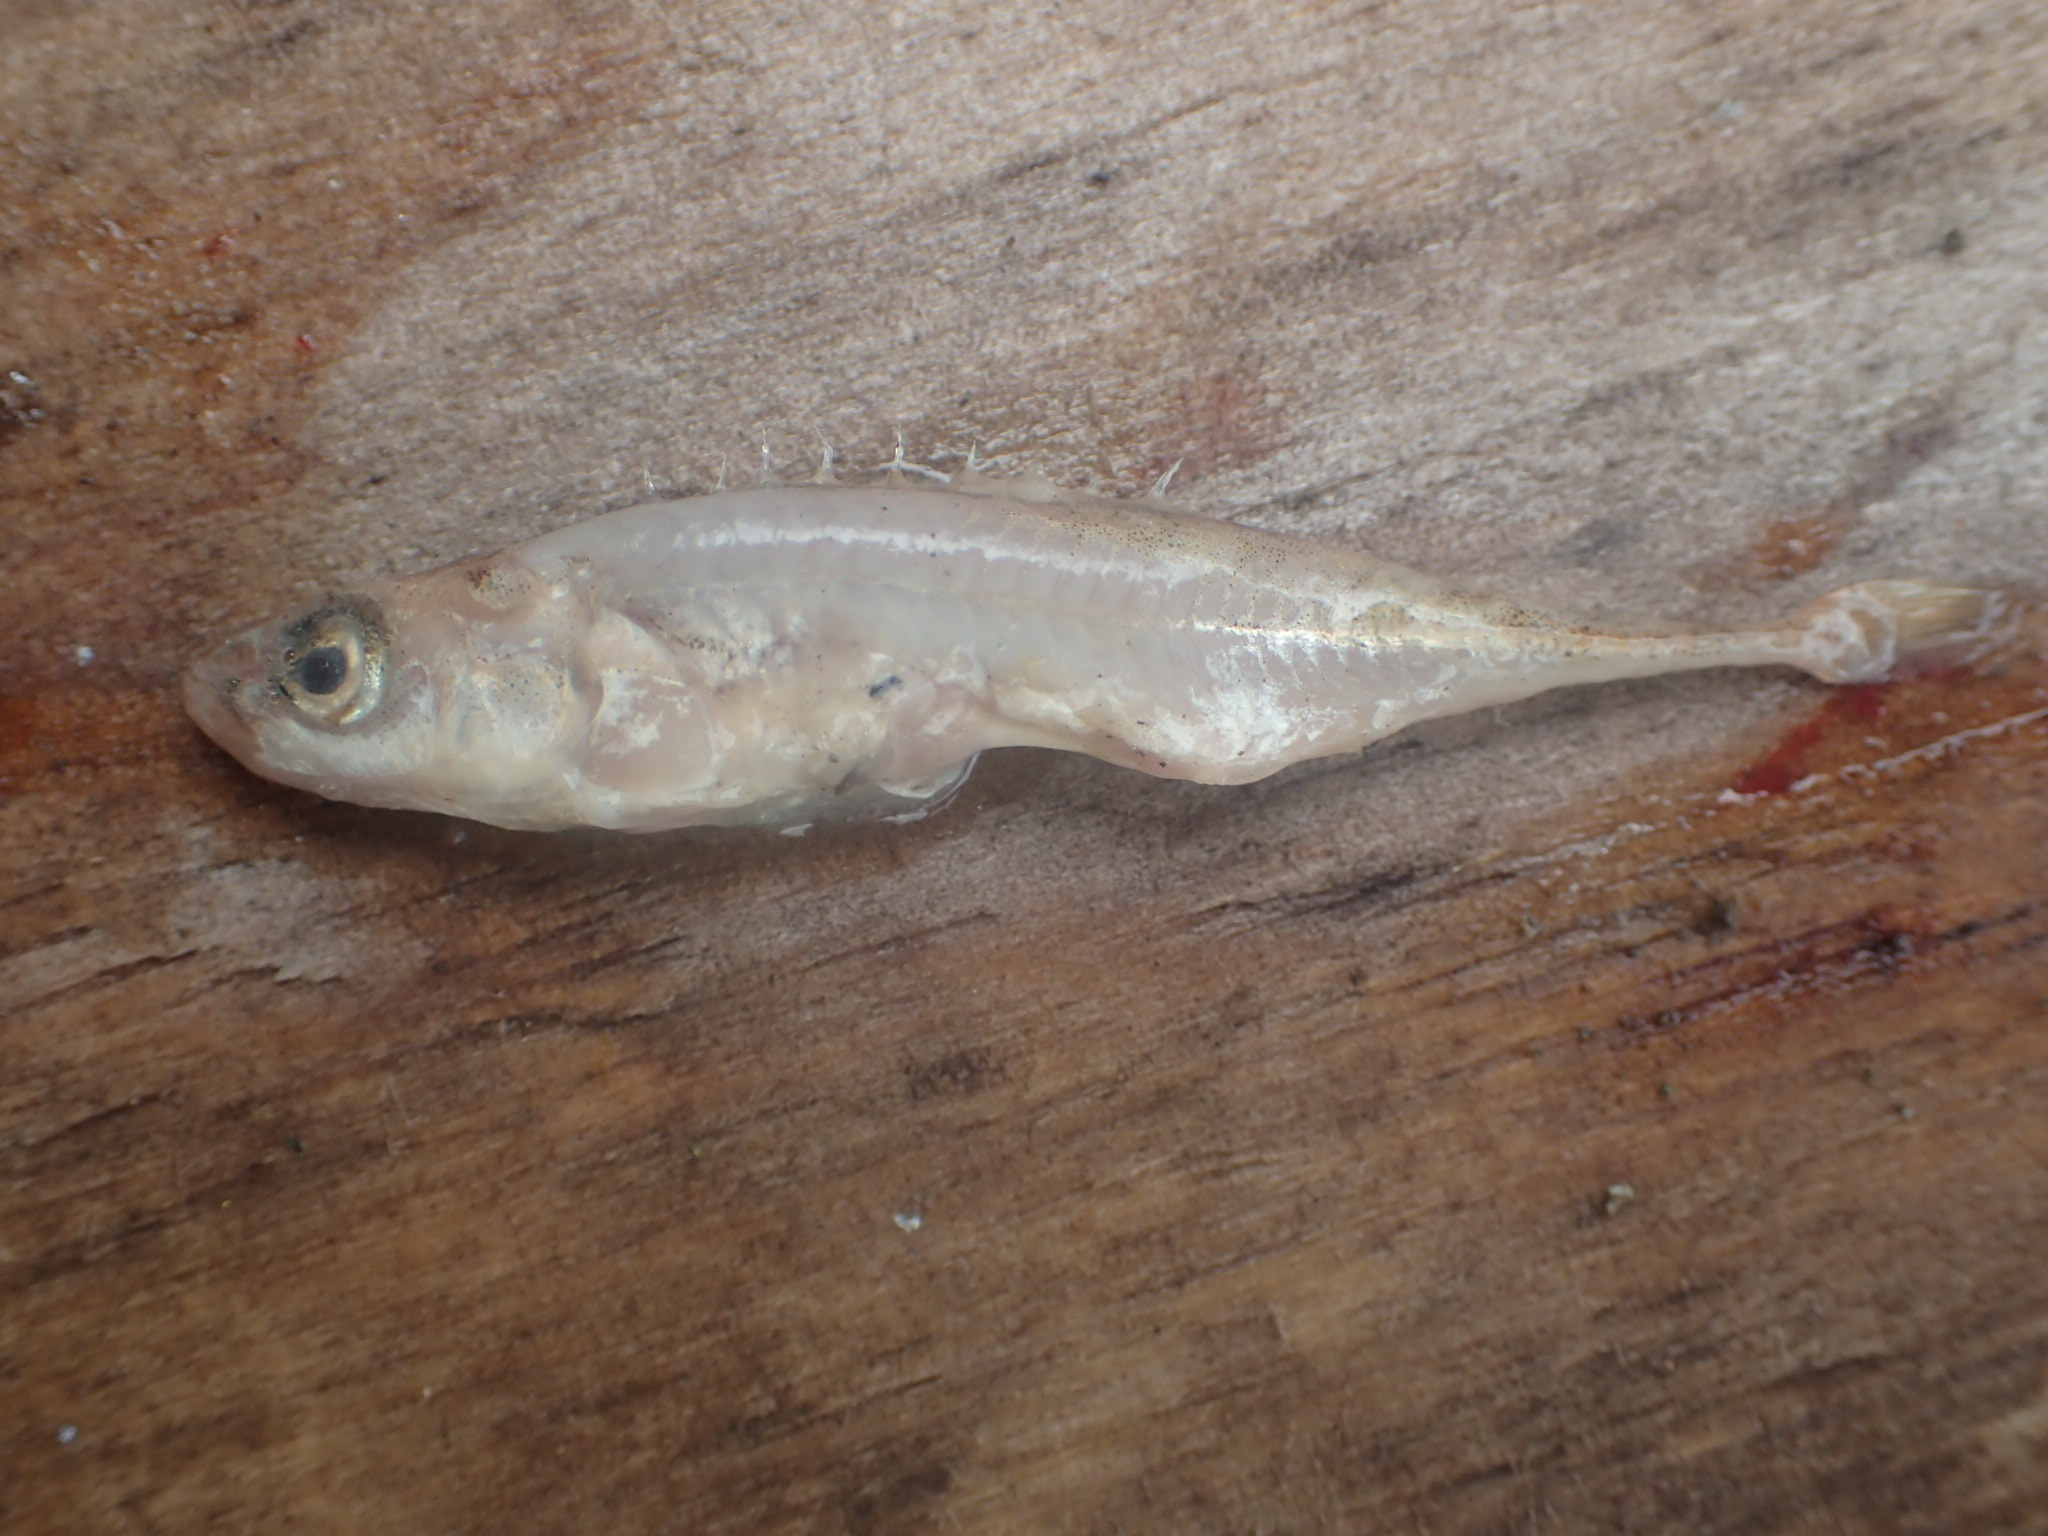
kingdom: Animalia
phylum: Chordata
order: Gasterosteiformes
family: Gasterosteidae
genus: Pungitius
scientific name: Pungitius pungitius
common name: Nine-spined stickleback
